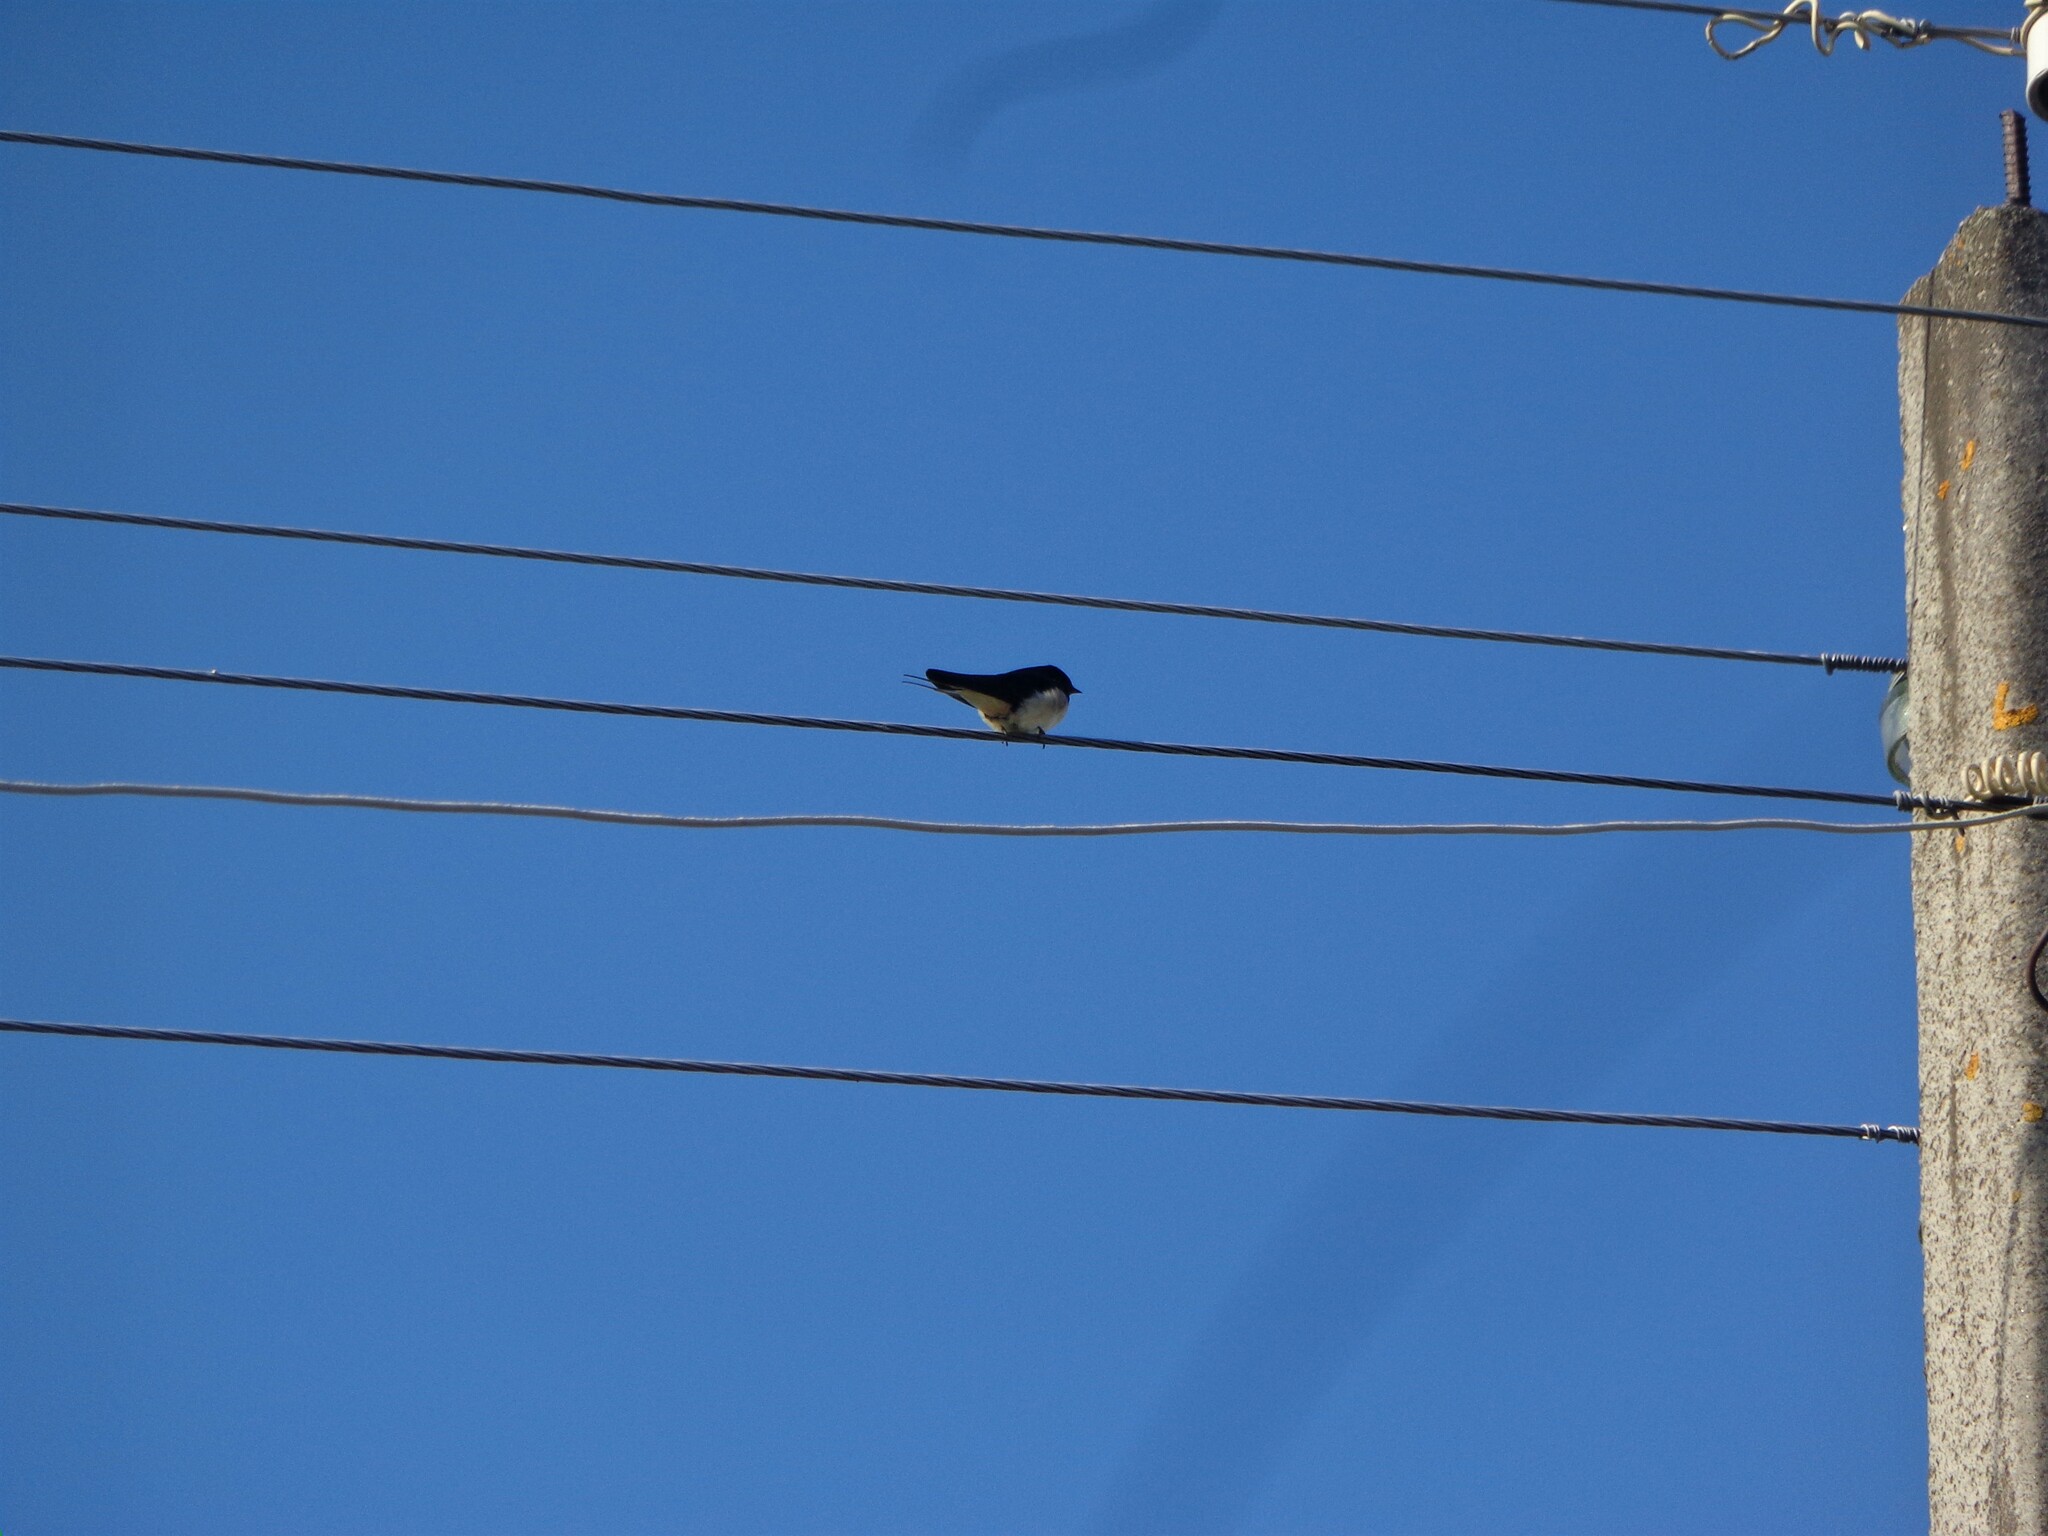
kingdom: Animalia
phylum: Chordata
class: Aves
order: Passeriformes
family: Hirundinidae
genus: Hirundo
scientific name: Hirundo rustica
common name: Barn swallow
